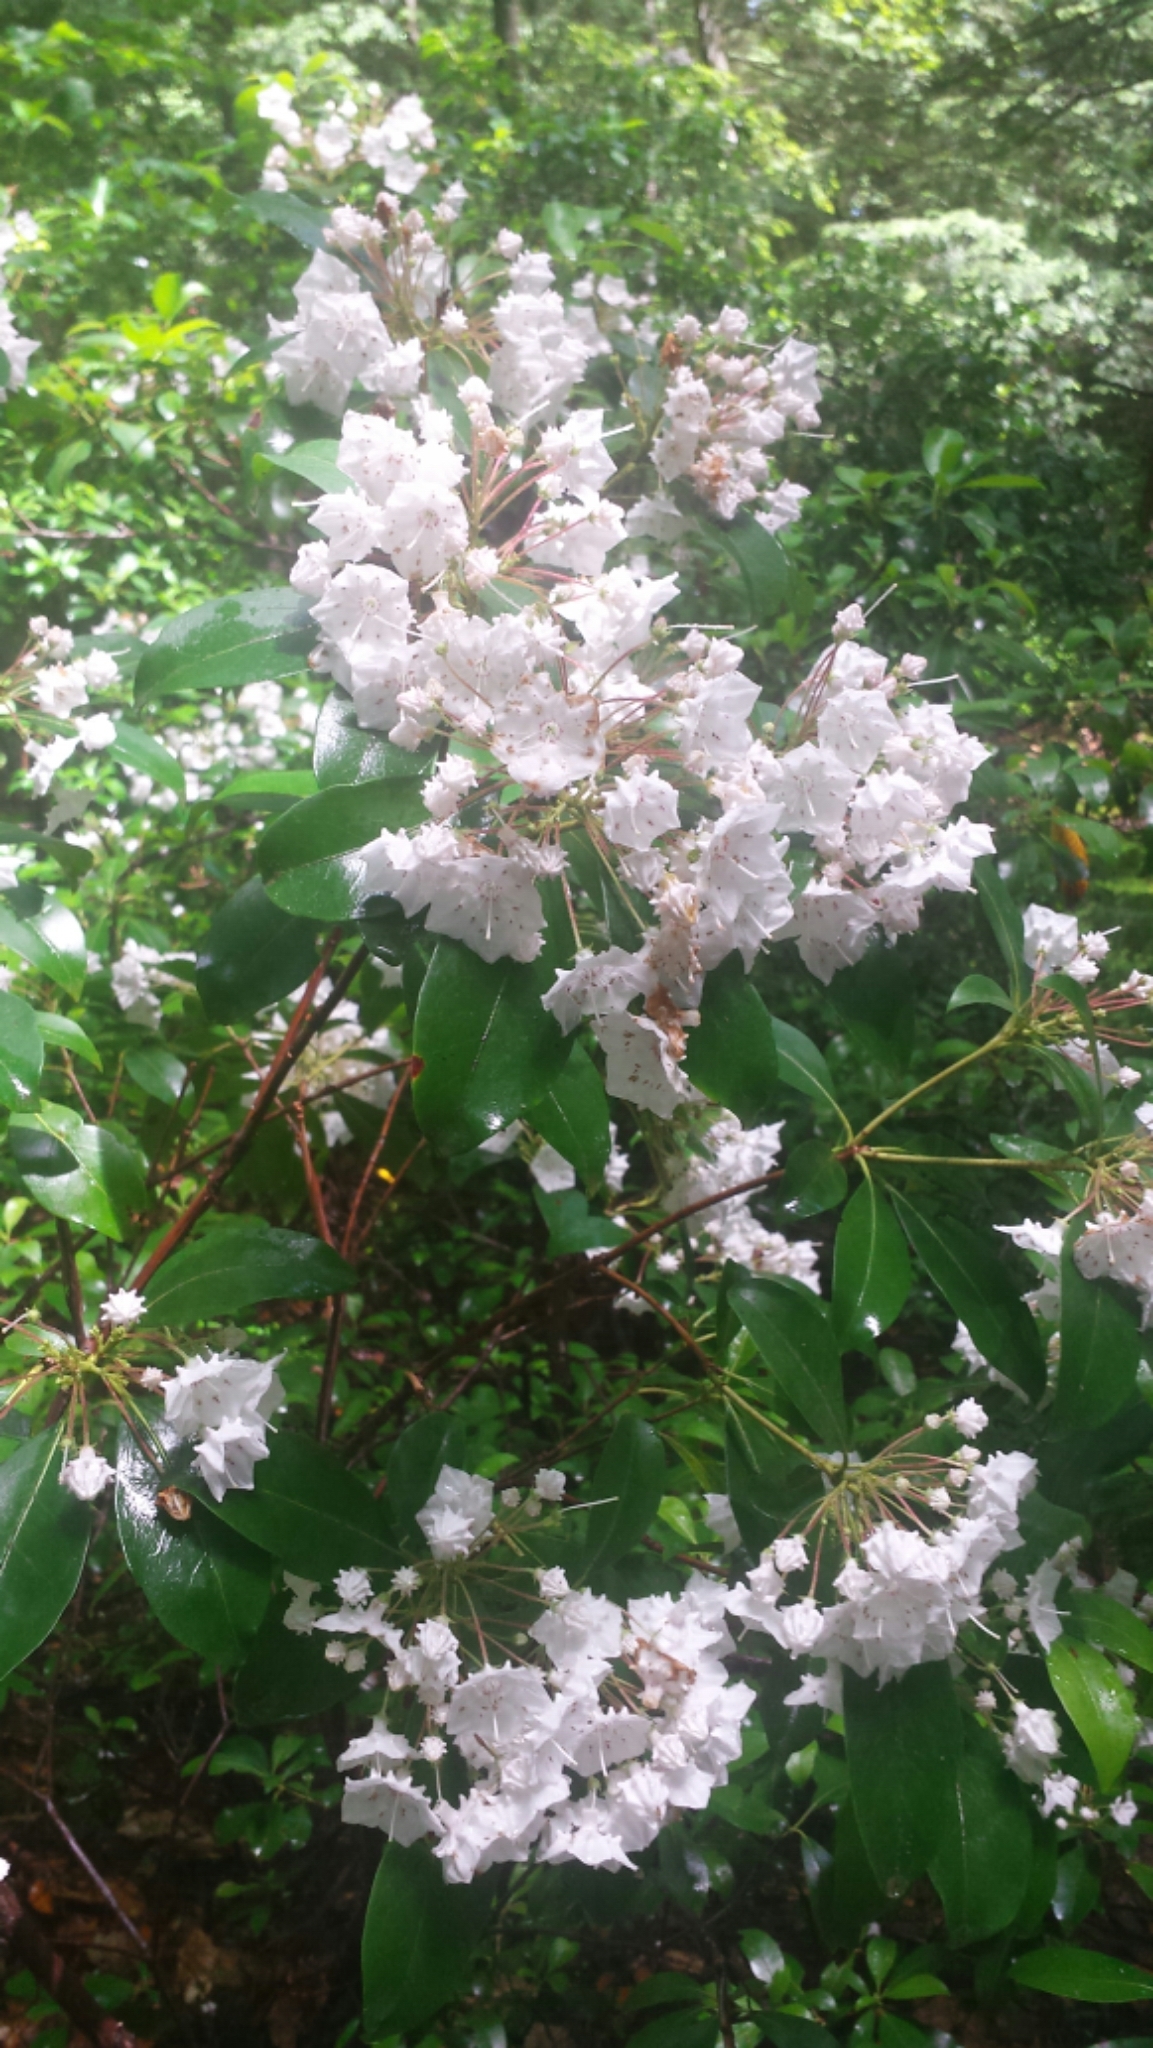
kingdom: Plantae
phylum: Tracheophyta
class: Magnoliopsida
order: Ericales
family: Ericaceae
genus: Kalmia
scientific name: Kalmia latifolia
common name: Mountain-laurel
